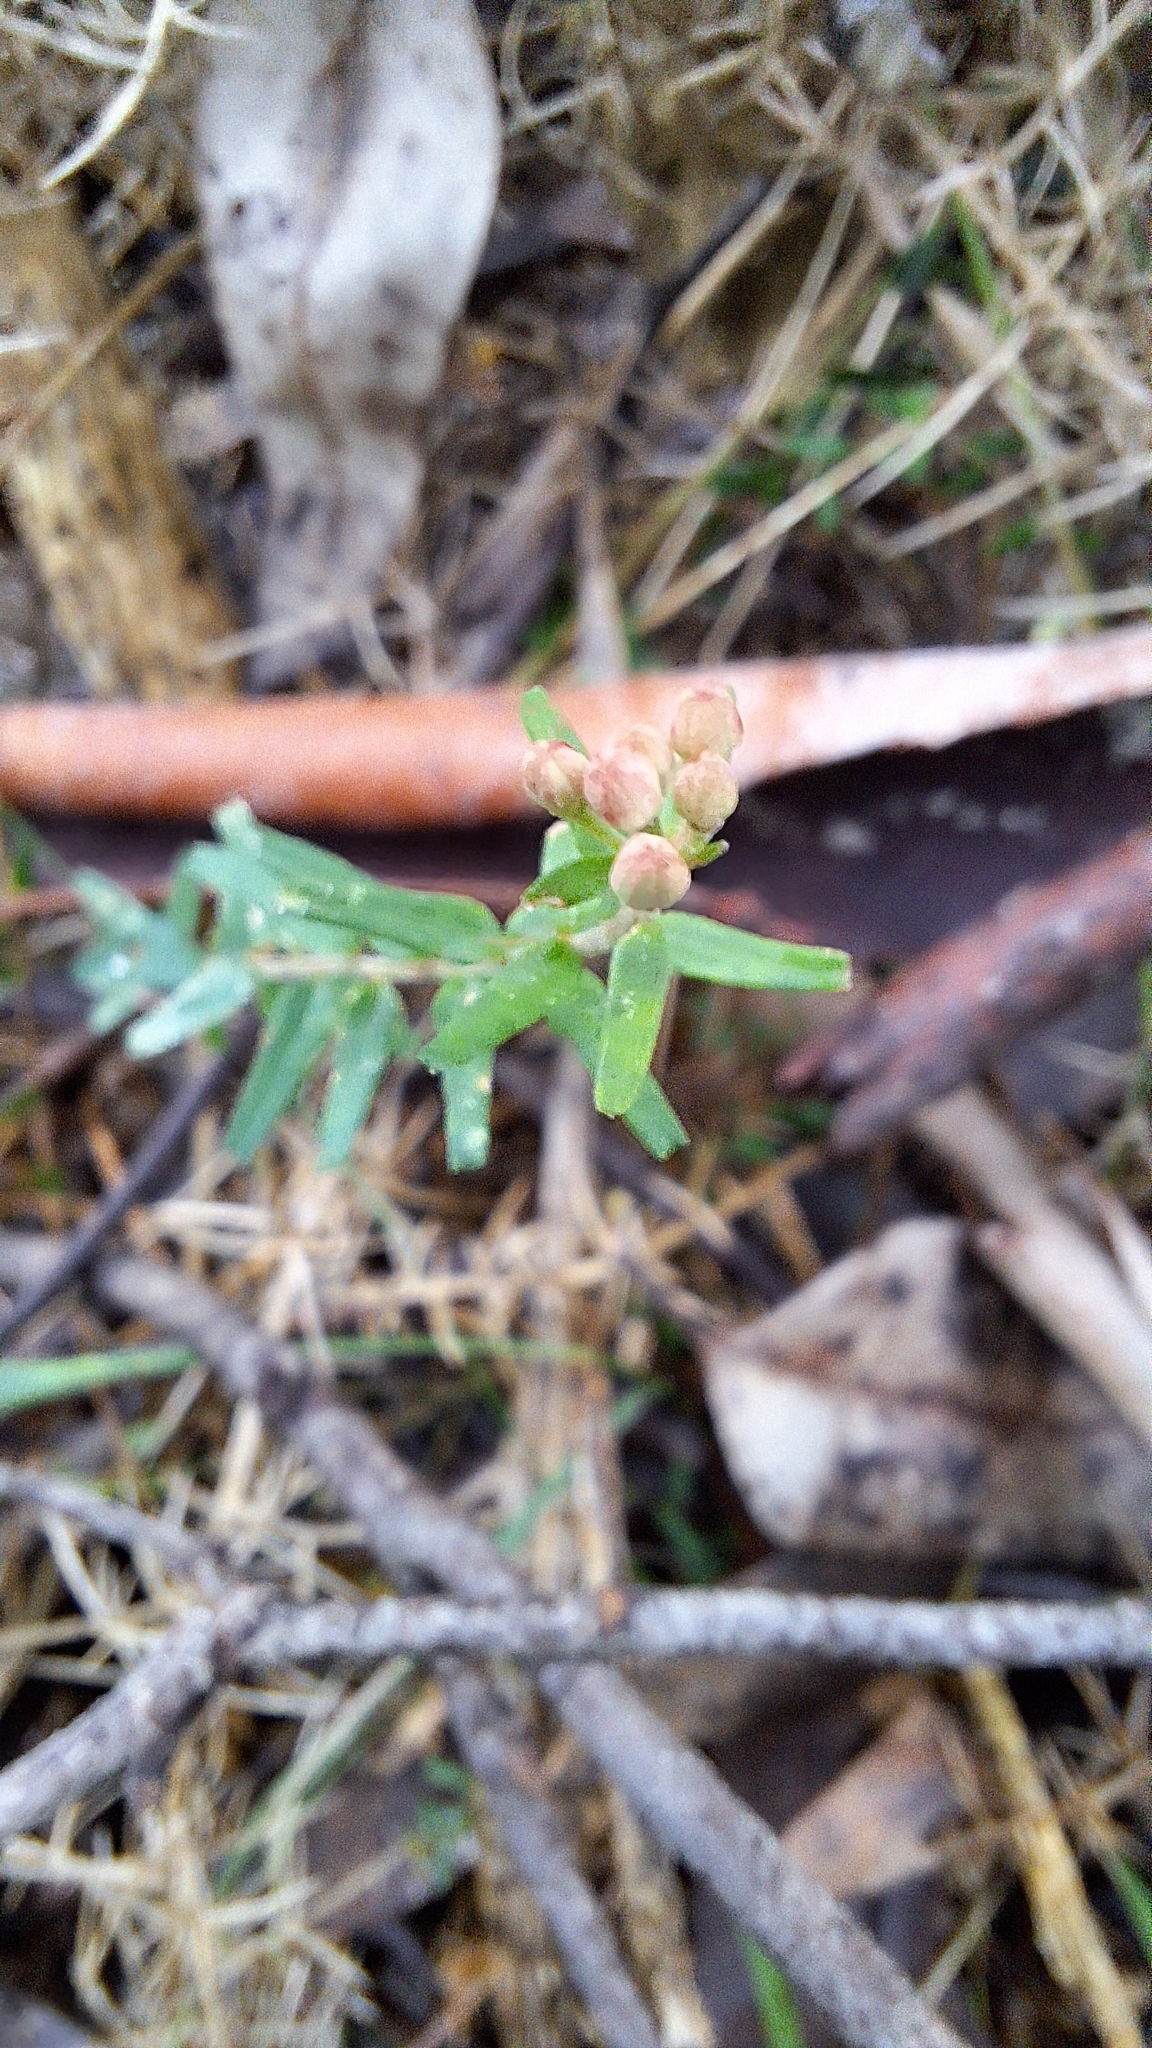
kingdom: Plantae
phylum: Tracheophyta
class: Magnoliopsida
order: Sapindales
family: Rutaceae
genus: Leionema
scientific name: Leionema hillebrandii
